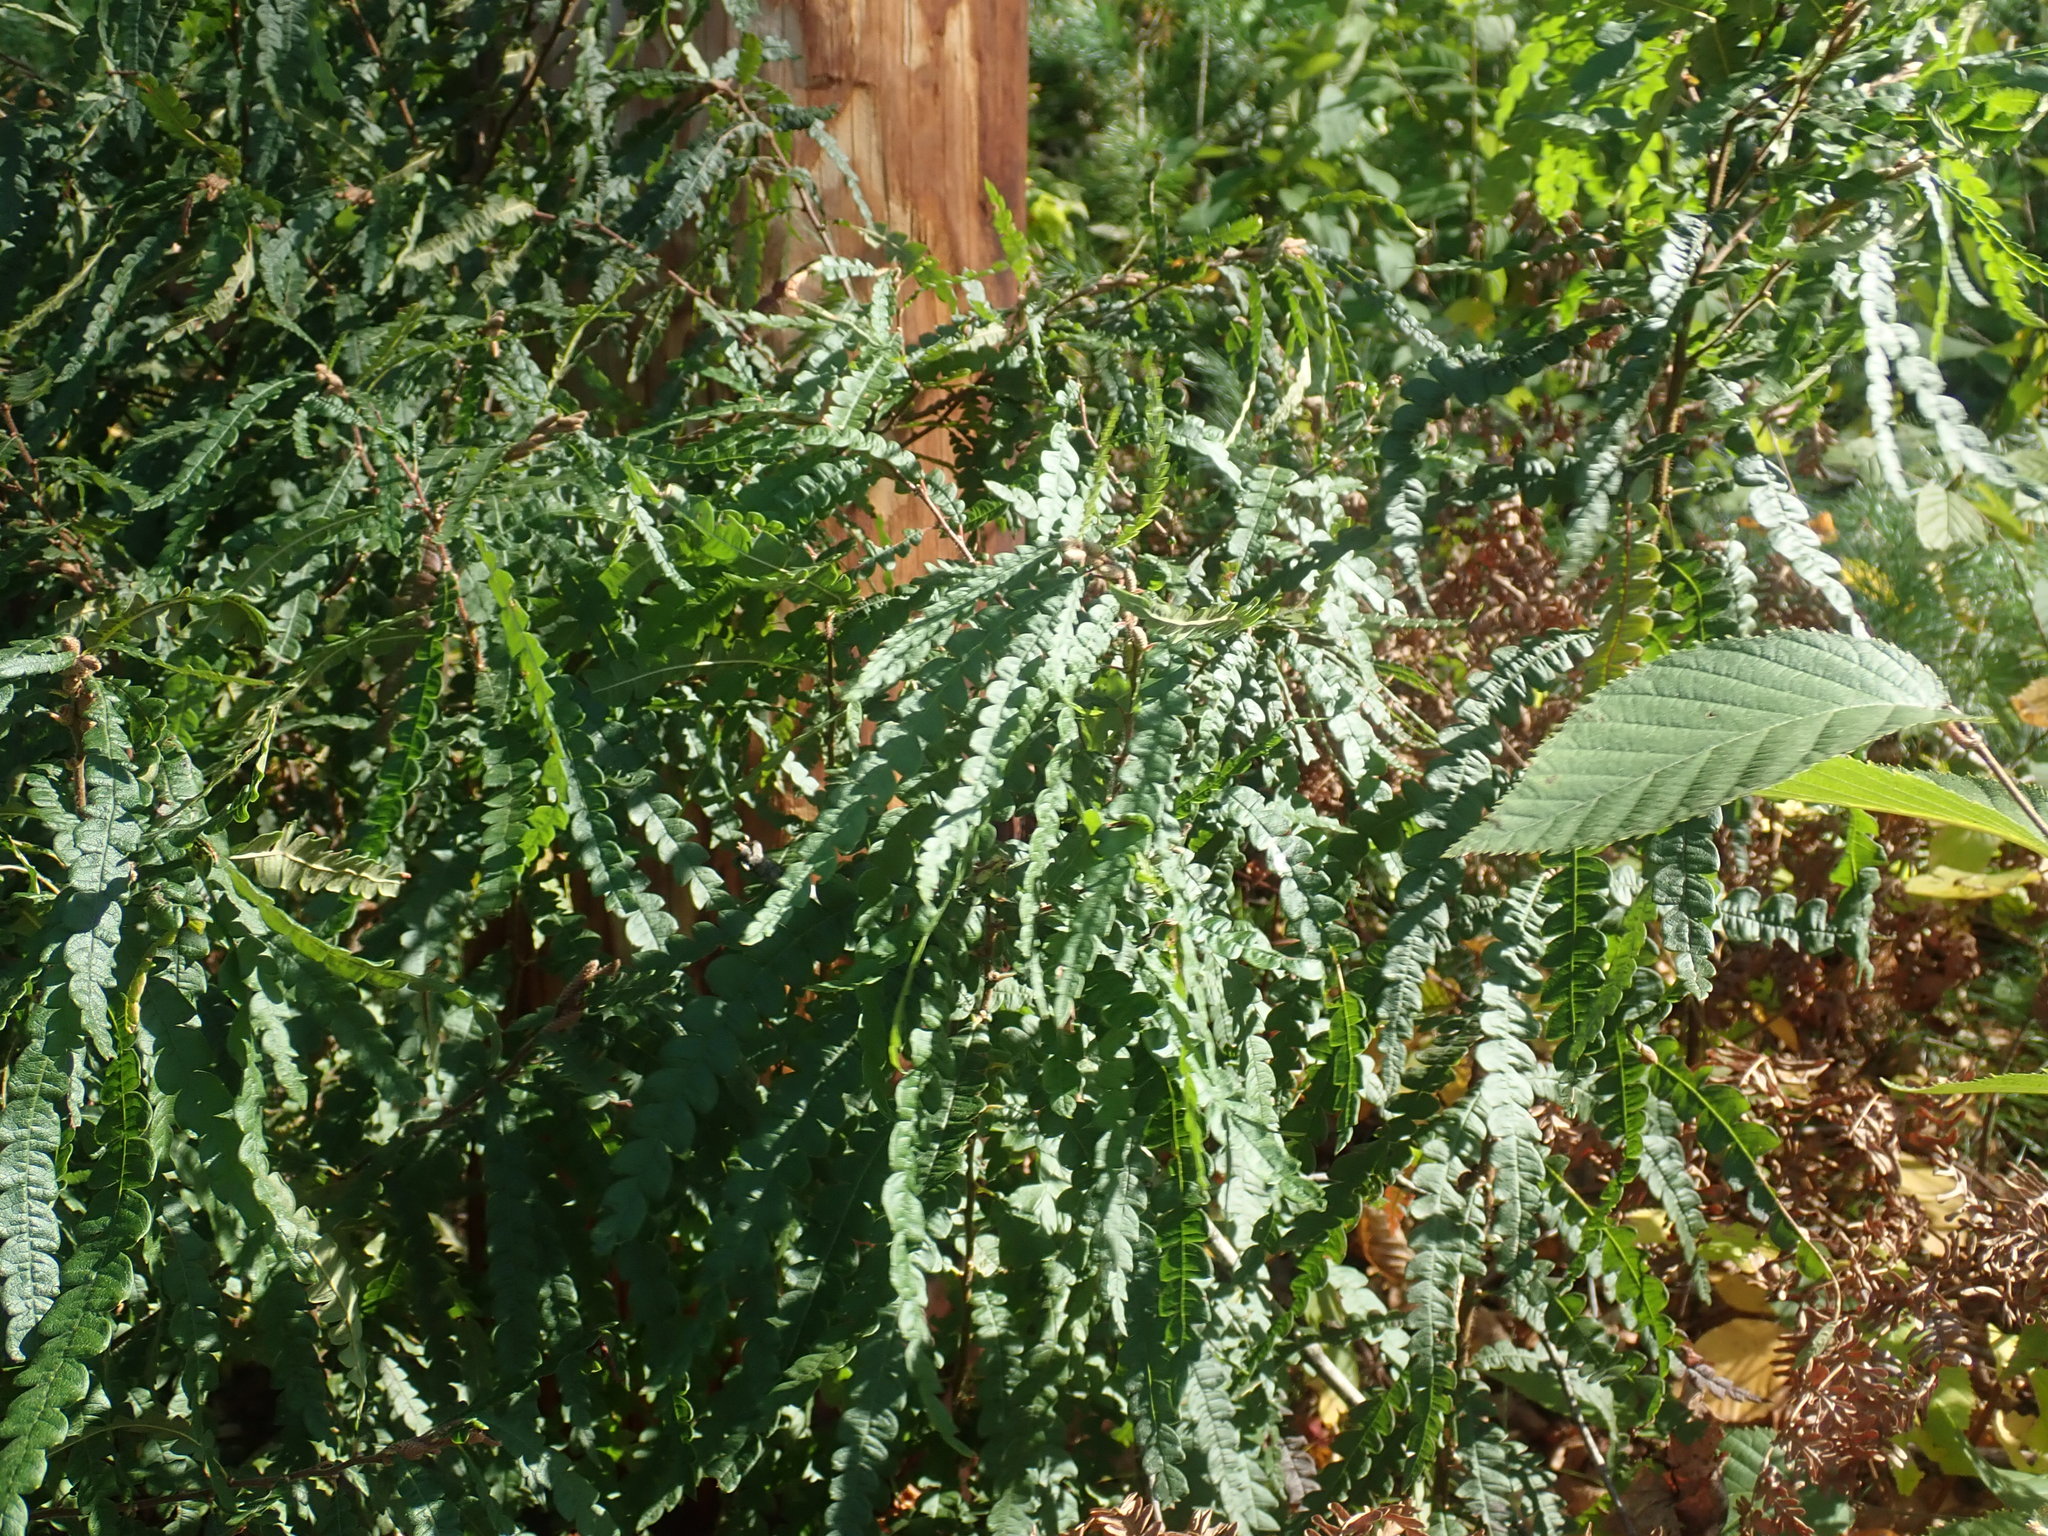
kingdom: Plantae
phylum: Tracheophyta
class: Magnoliopsida
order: Fagales
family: Myricaceae
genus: Comptonia
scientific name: Comptonia peregrina
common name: Sweet-fern
